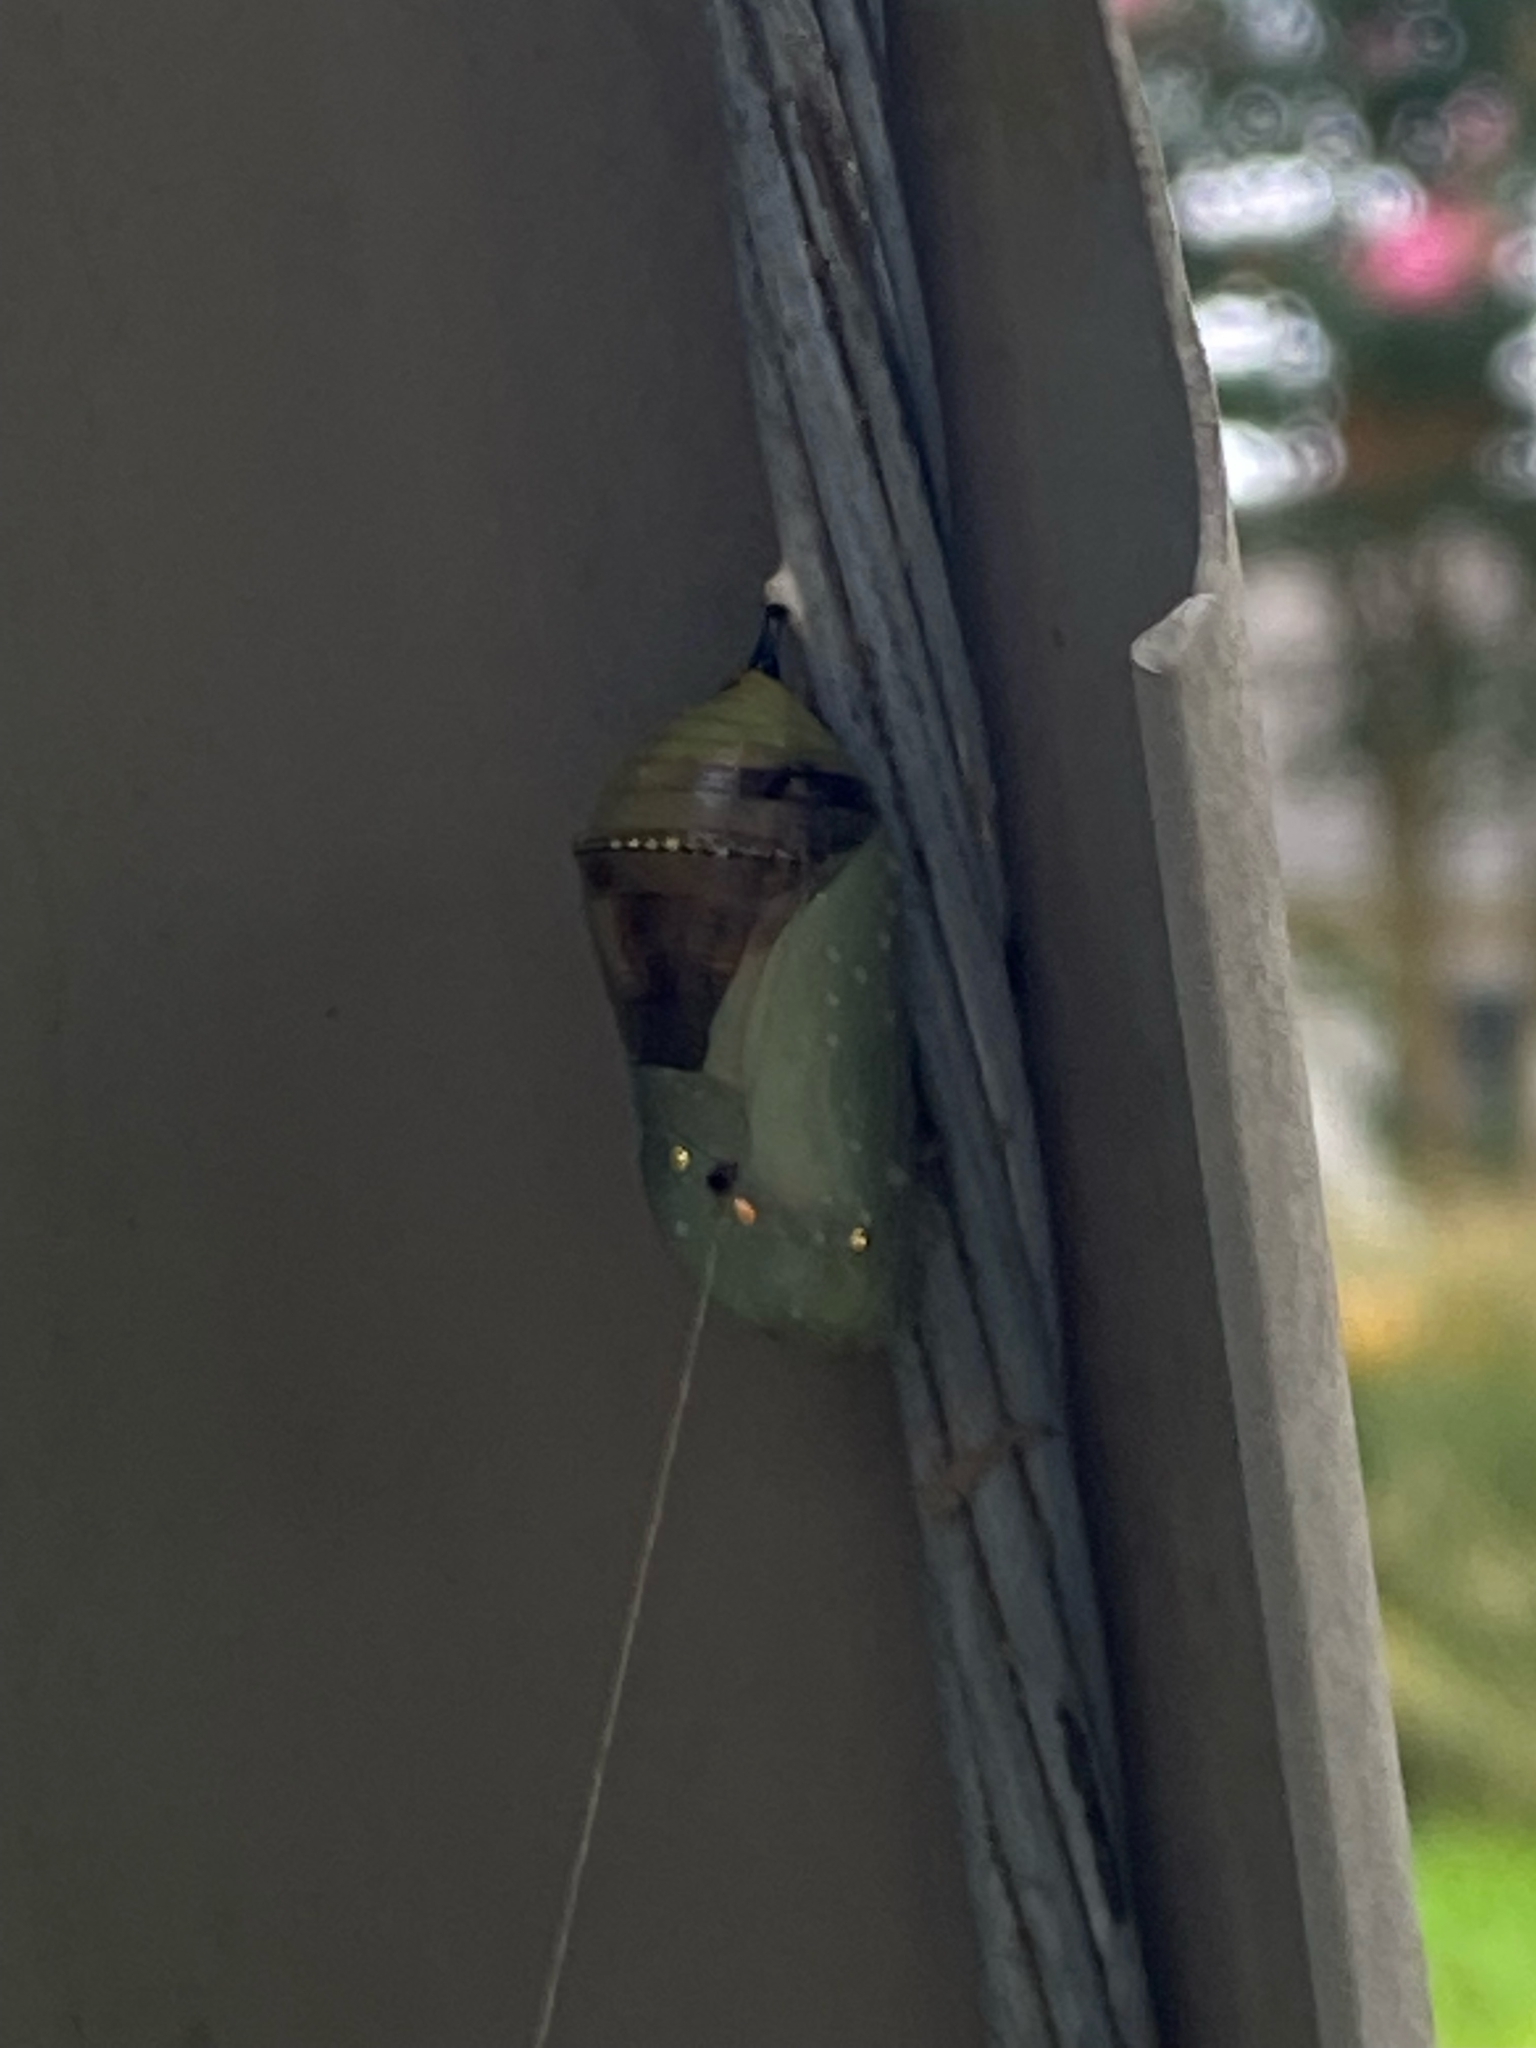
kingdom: Animalia
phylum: Arthropoda
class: Insecta
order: Lepidoptera
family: Nymphalidae
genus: Danaus
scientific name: Danaus plexippus
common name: Monarch
